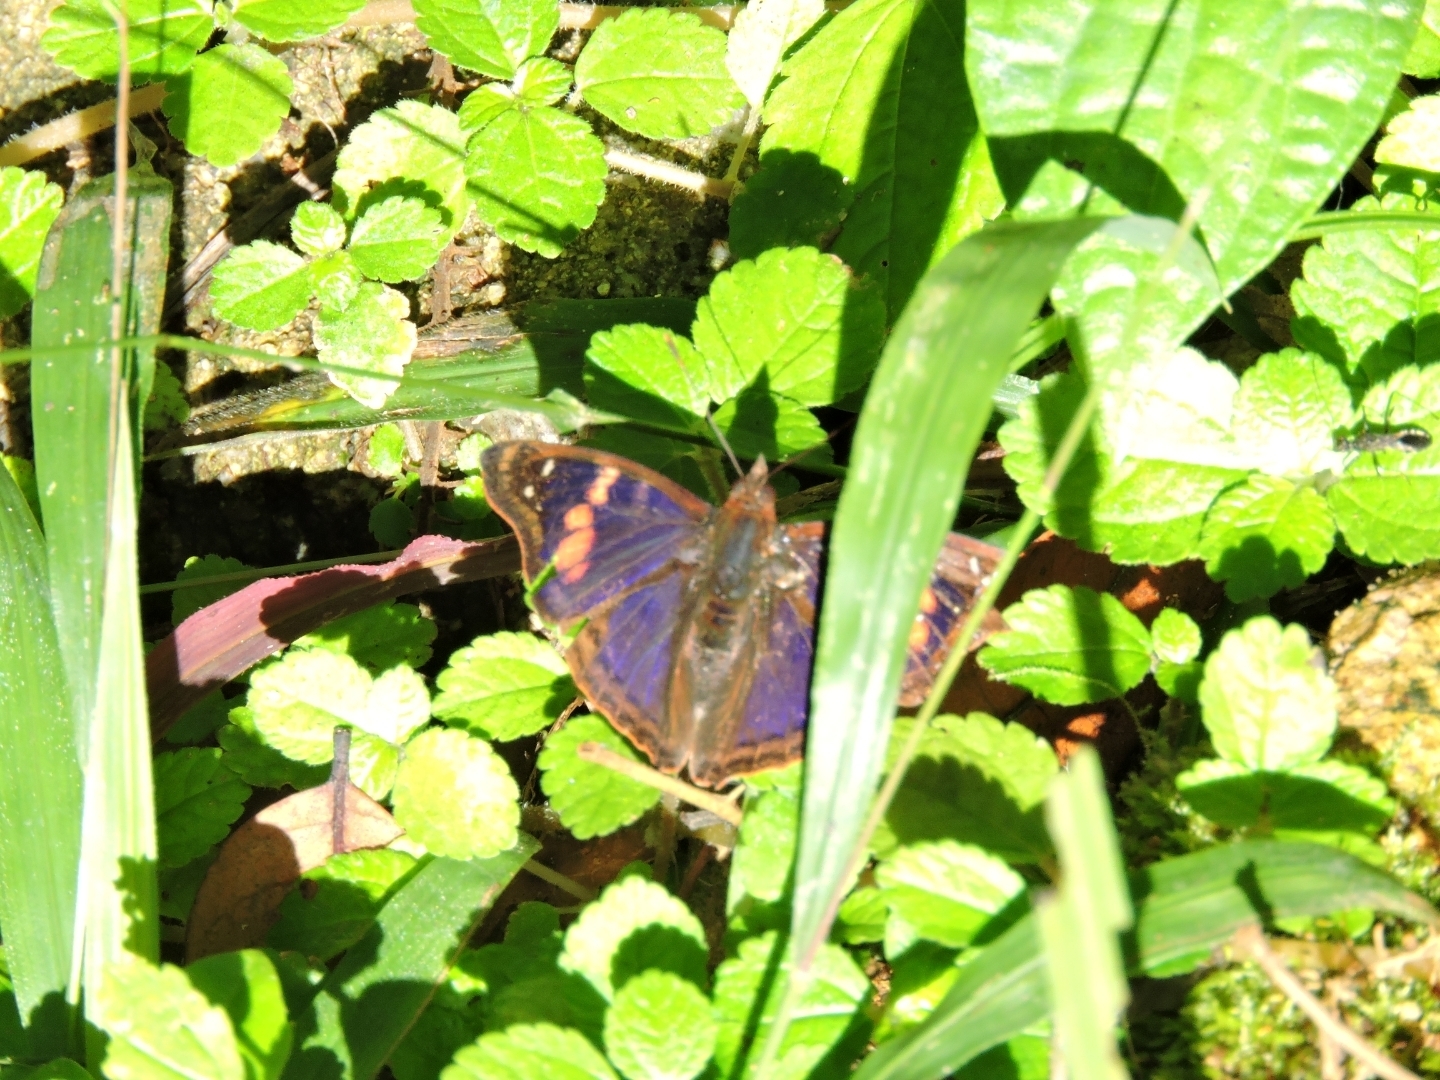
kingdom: Animalia
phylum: Arthropoda
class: Insecta
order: Lepidoptera
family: Nymphalidae
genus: Doxocopa
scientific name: Doxocopa agathina
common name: Agathina emperor
